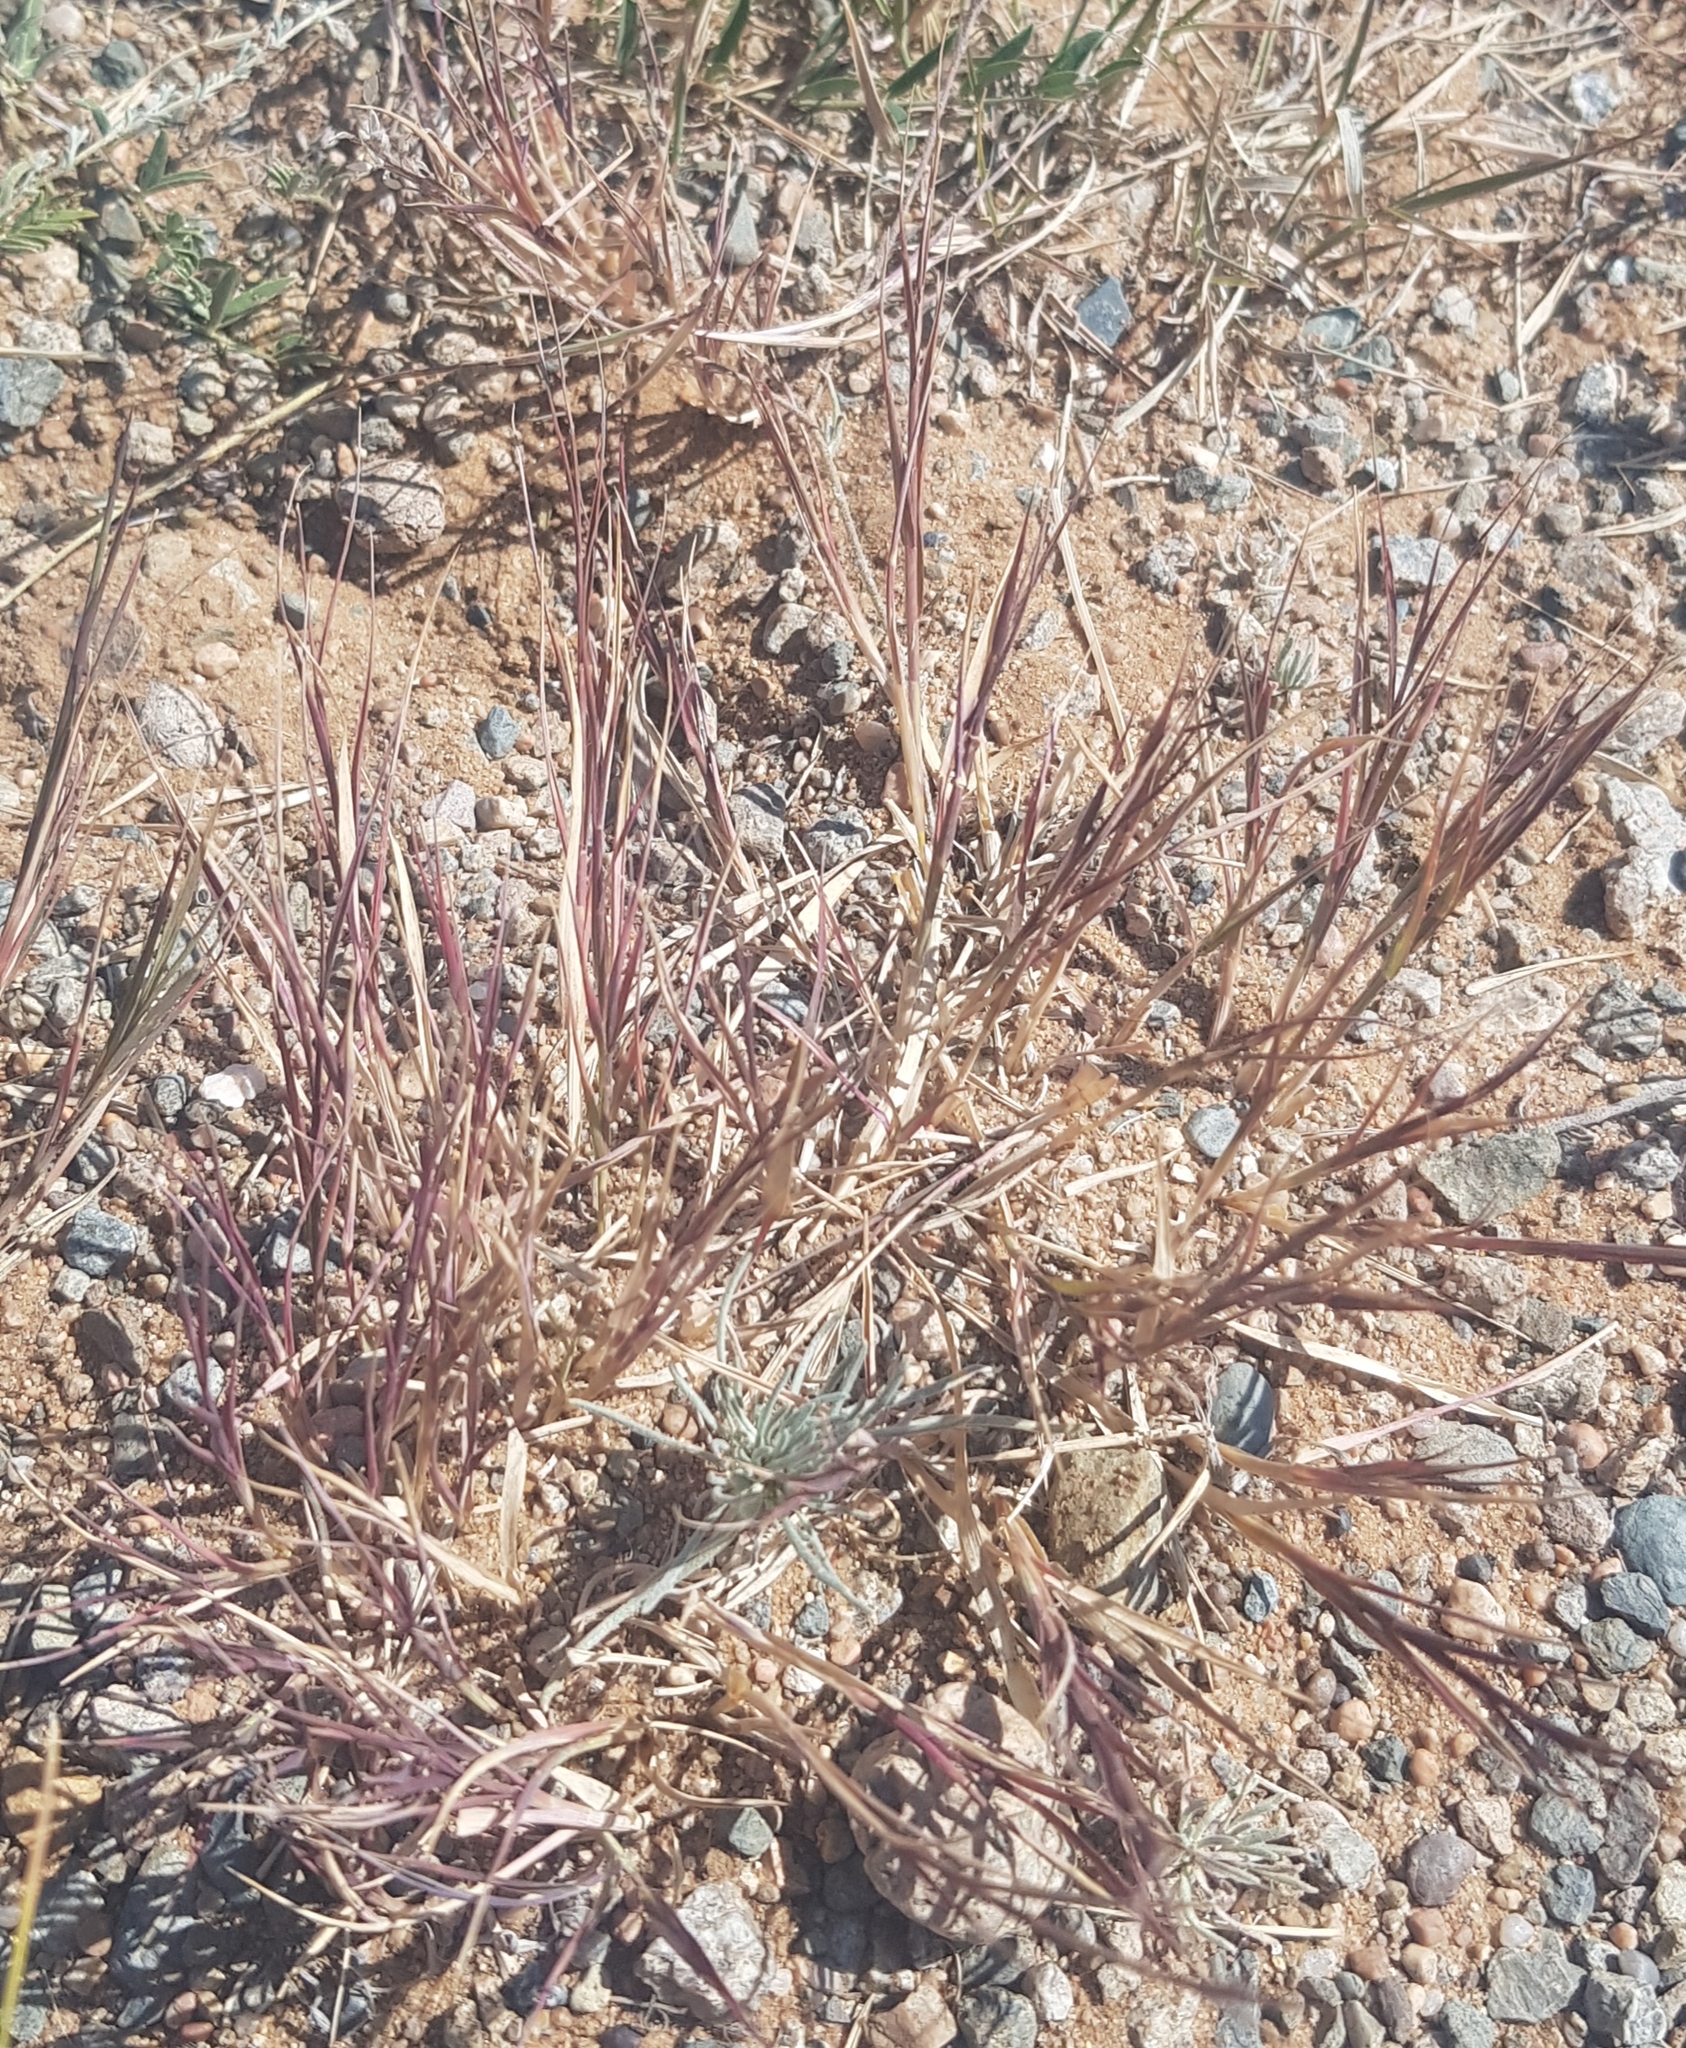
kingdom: Plantae
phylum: Tracheophyta
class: Liliopsida
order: Poales
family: Poaceae
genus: Cleistogenes
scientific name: Cleistogenes squarrosa
